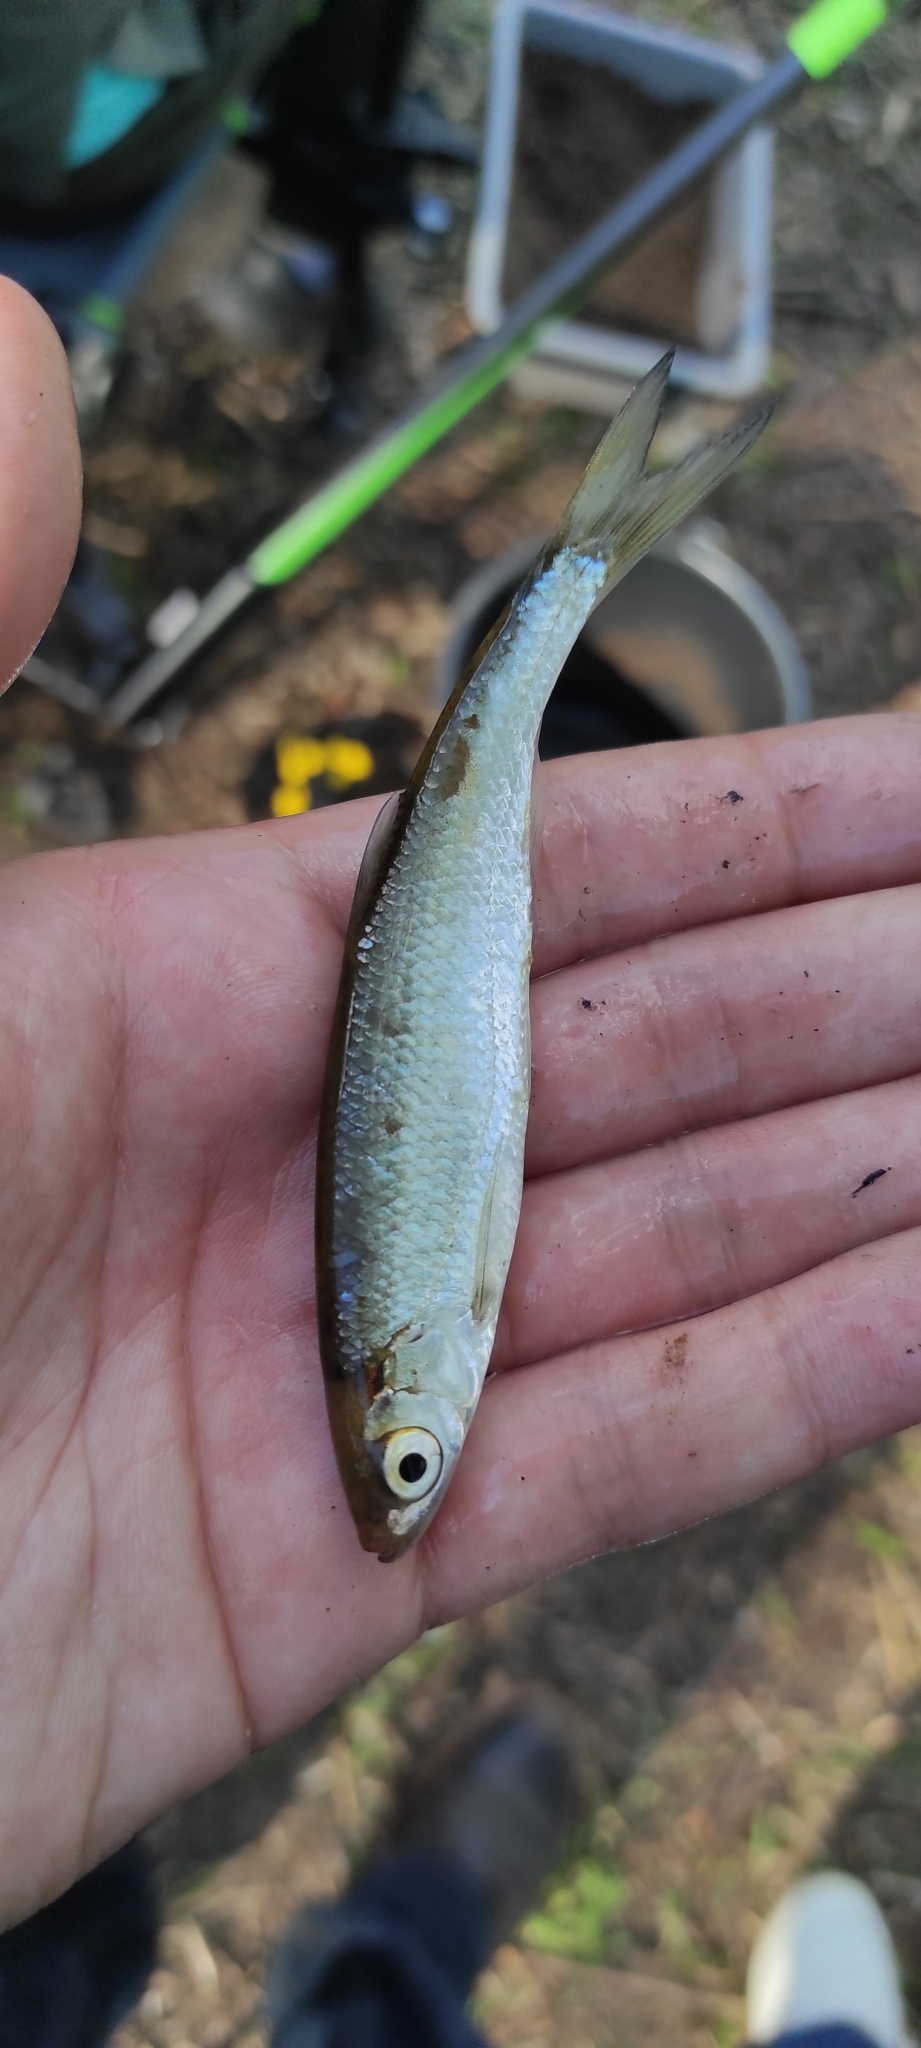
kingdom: Animalia
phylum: Chordata
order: Cypriniformes
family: Cyprinidae
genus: Alburnus
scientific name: Alburnus alburnus
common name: Bleak
